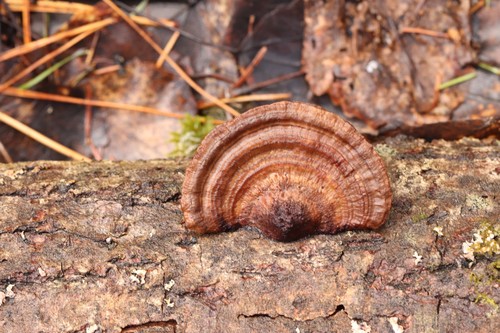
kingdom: Fungi
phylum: Basidiomycota
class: Agaricomycetes
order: Polyporales
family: Polyporaceae
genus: Daedaleopsis
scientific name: Daedaleopsis confragosa
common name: Blushing bracket
